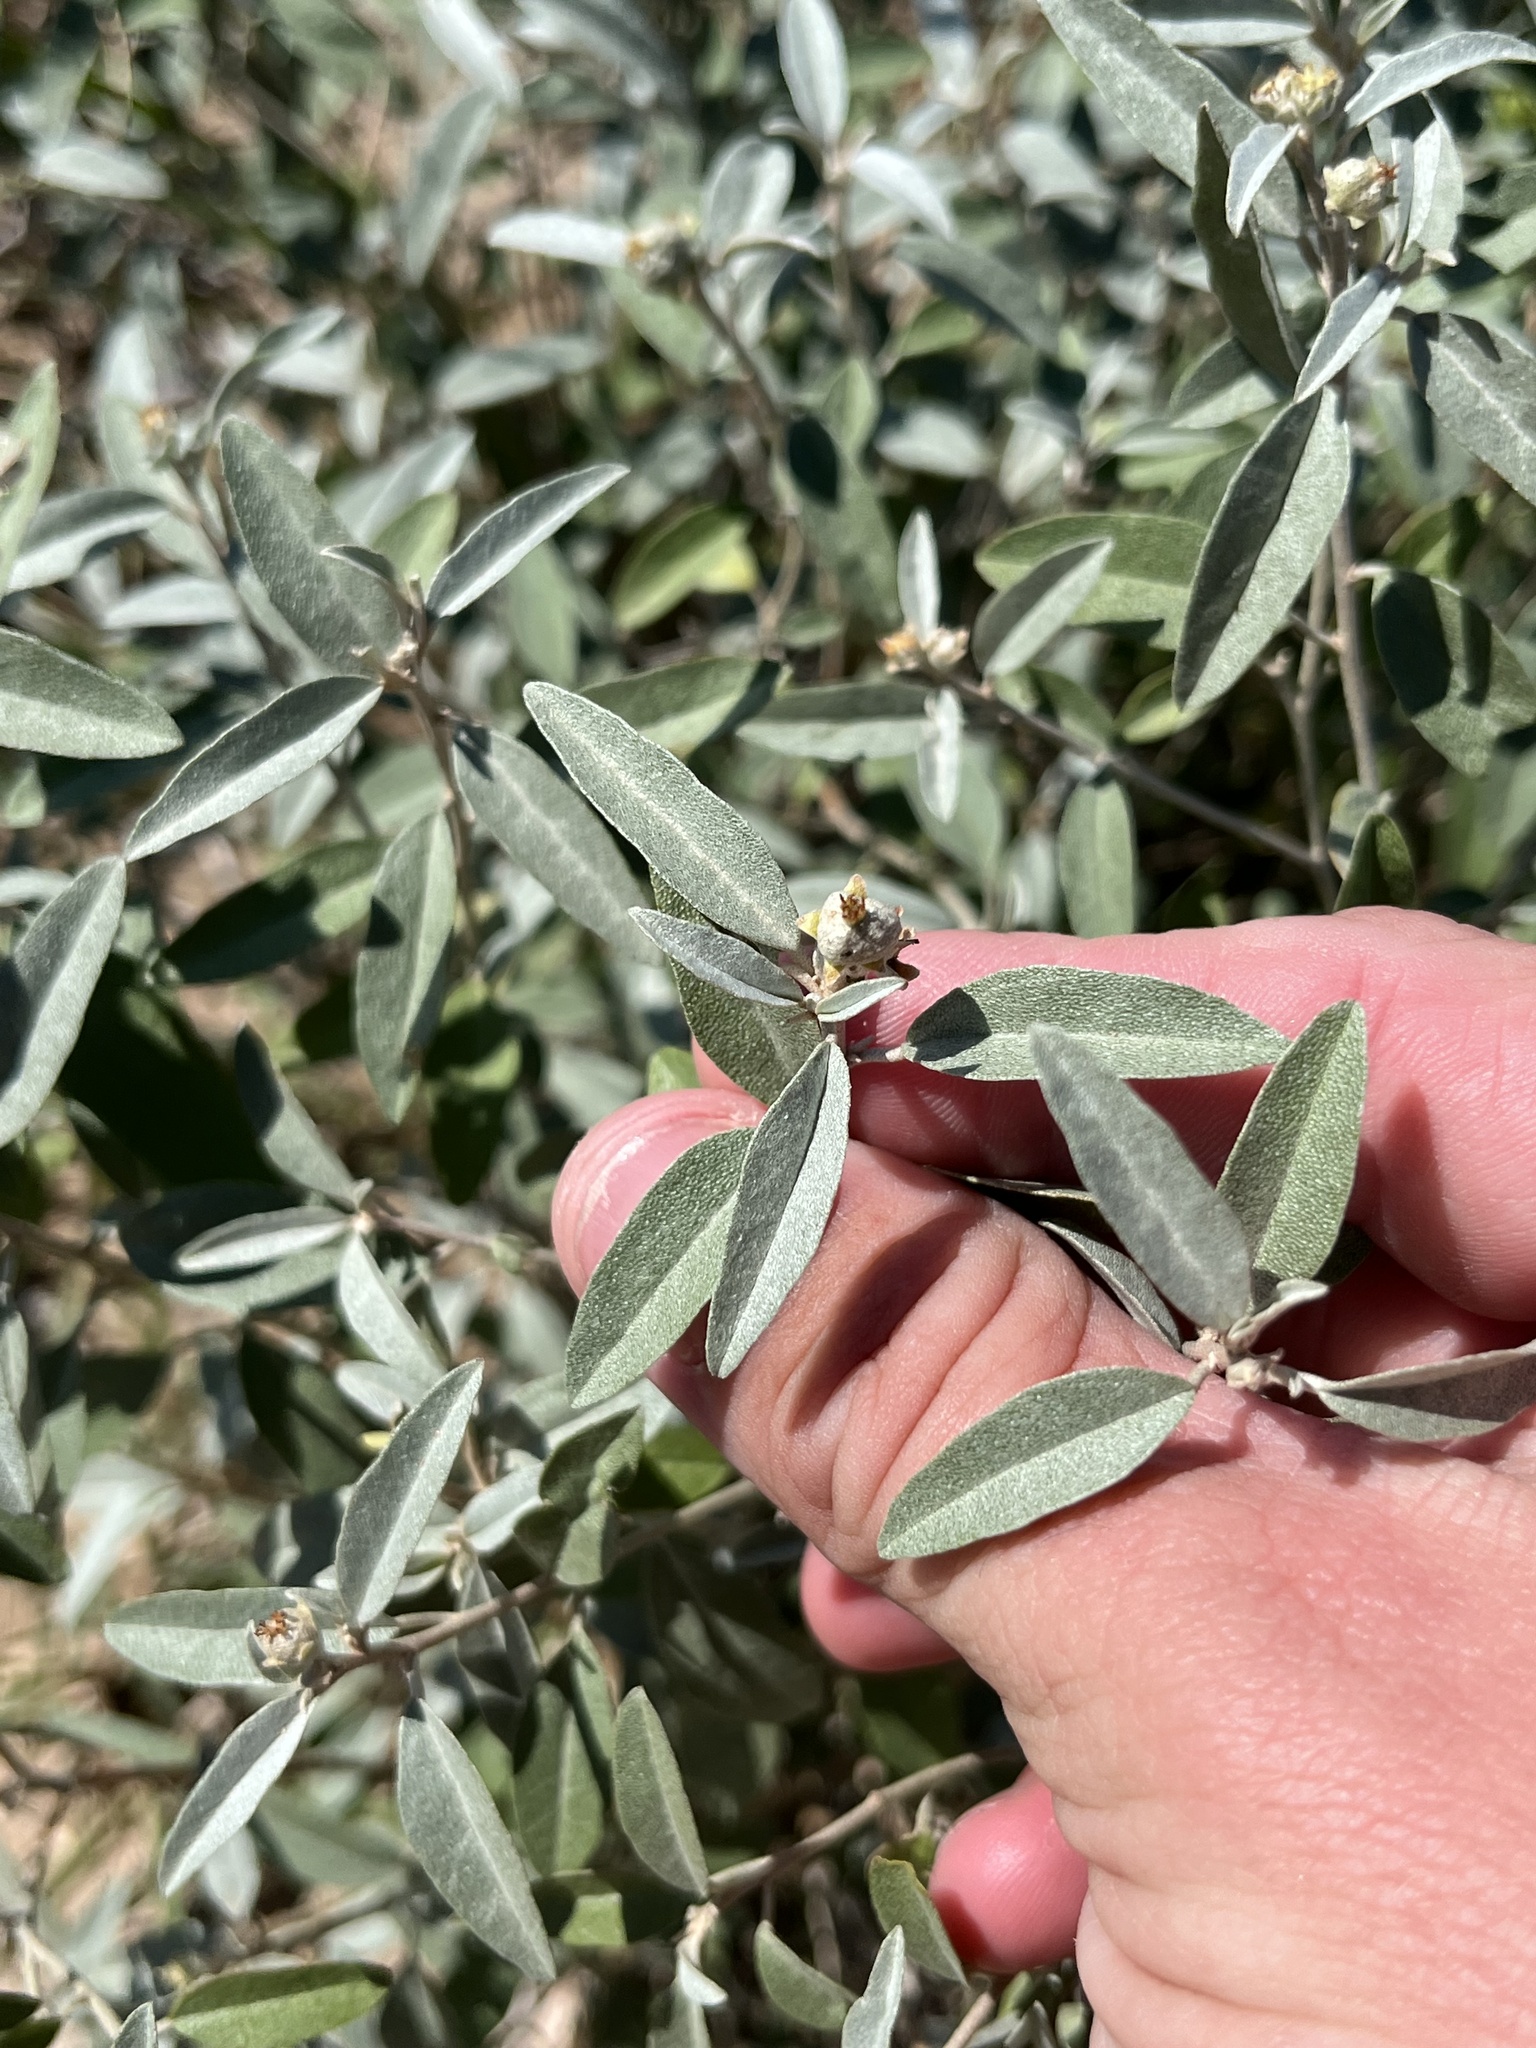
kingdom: Plantae
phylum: Tracheophyta
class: Magnoliopsida
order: Malpighiales
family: Euphorbiaceae
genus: Croton
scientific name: Croton dioicus
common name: Grassland croton
